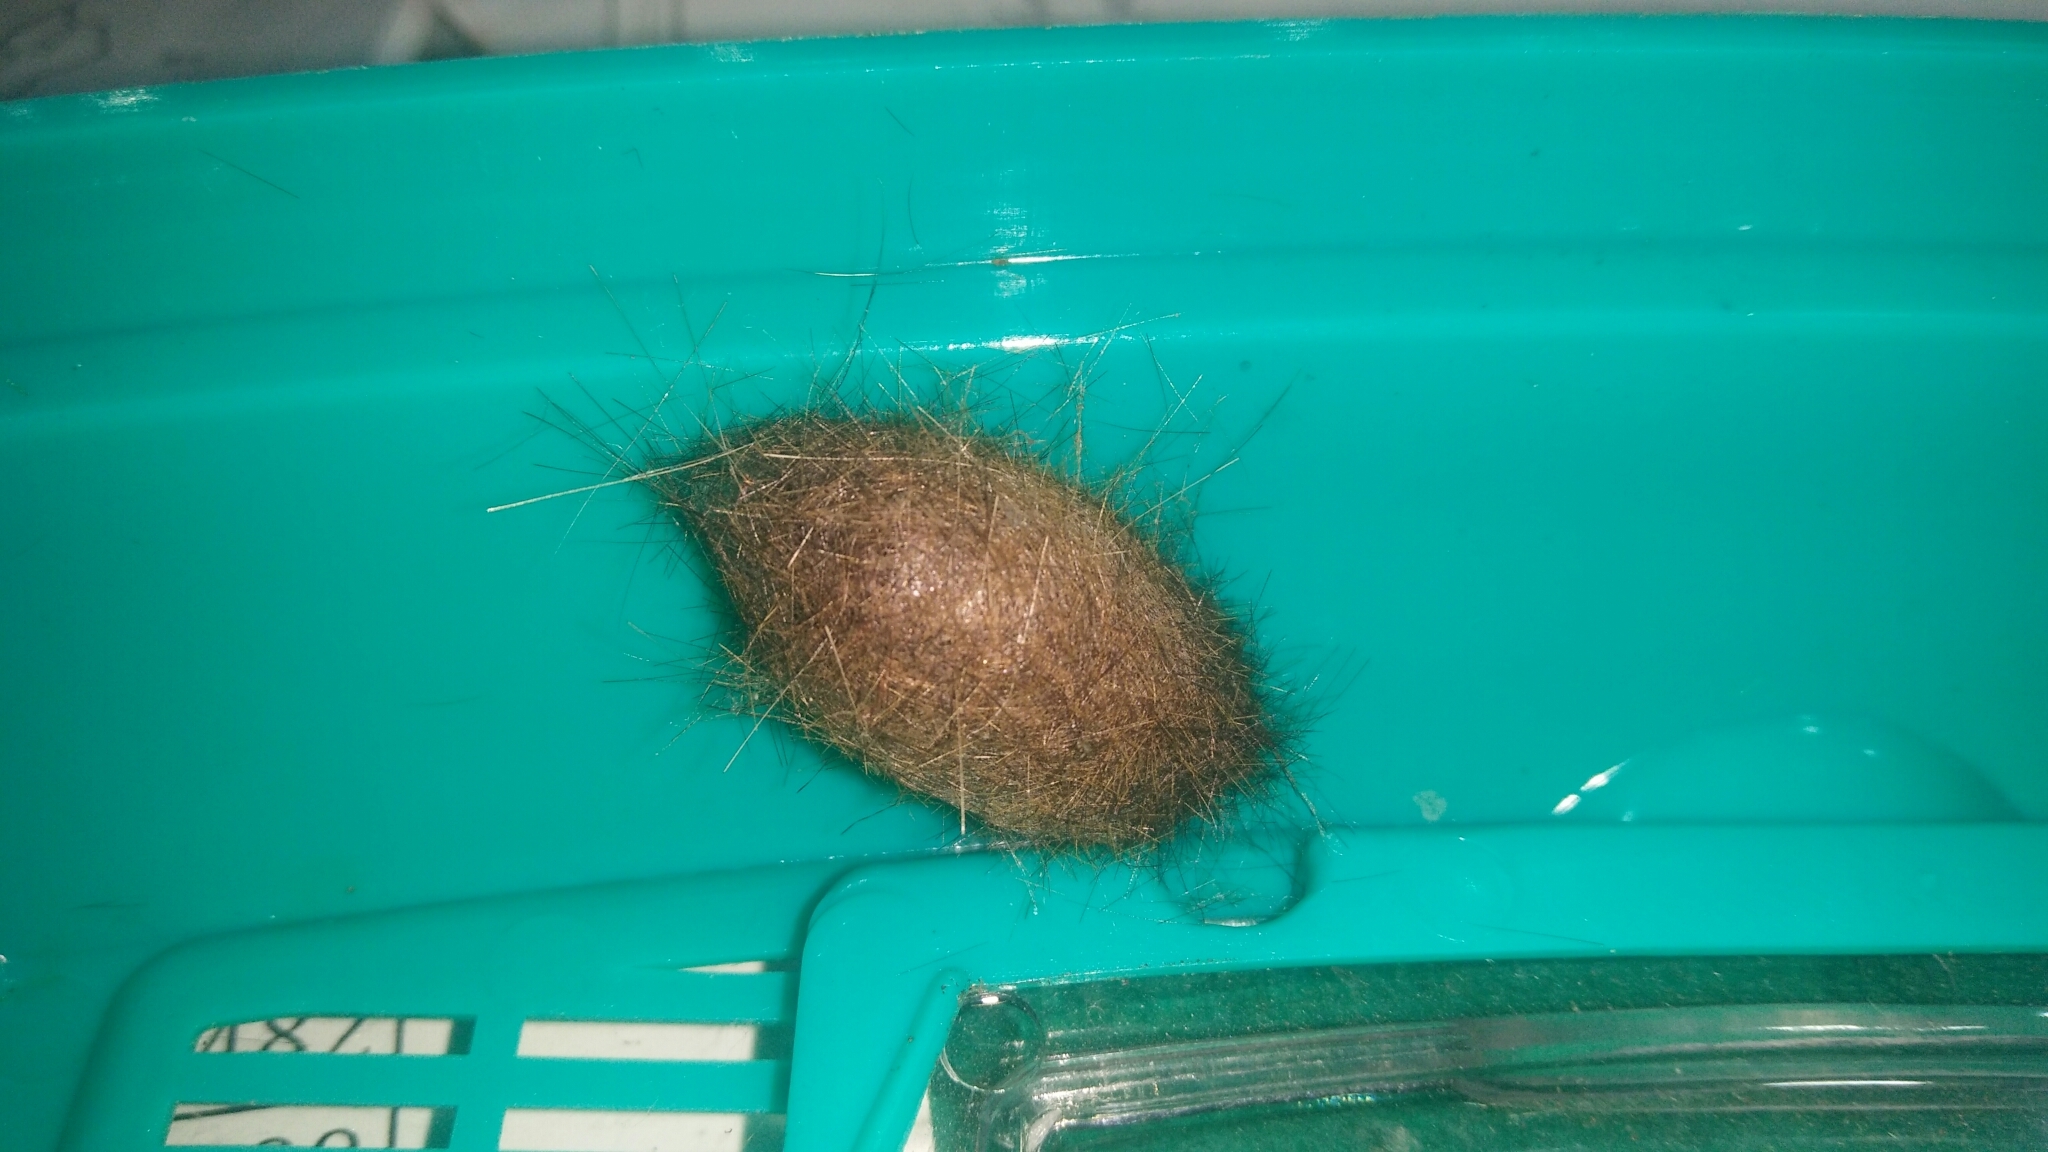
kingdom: Animalia
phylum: Arthropoda
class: Insecta
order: Lepidoptera
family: Erebidae
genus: Spilarctia
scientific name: Spilarctia postrubida
